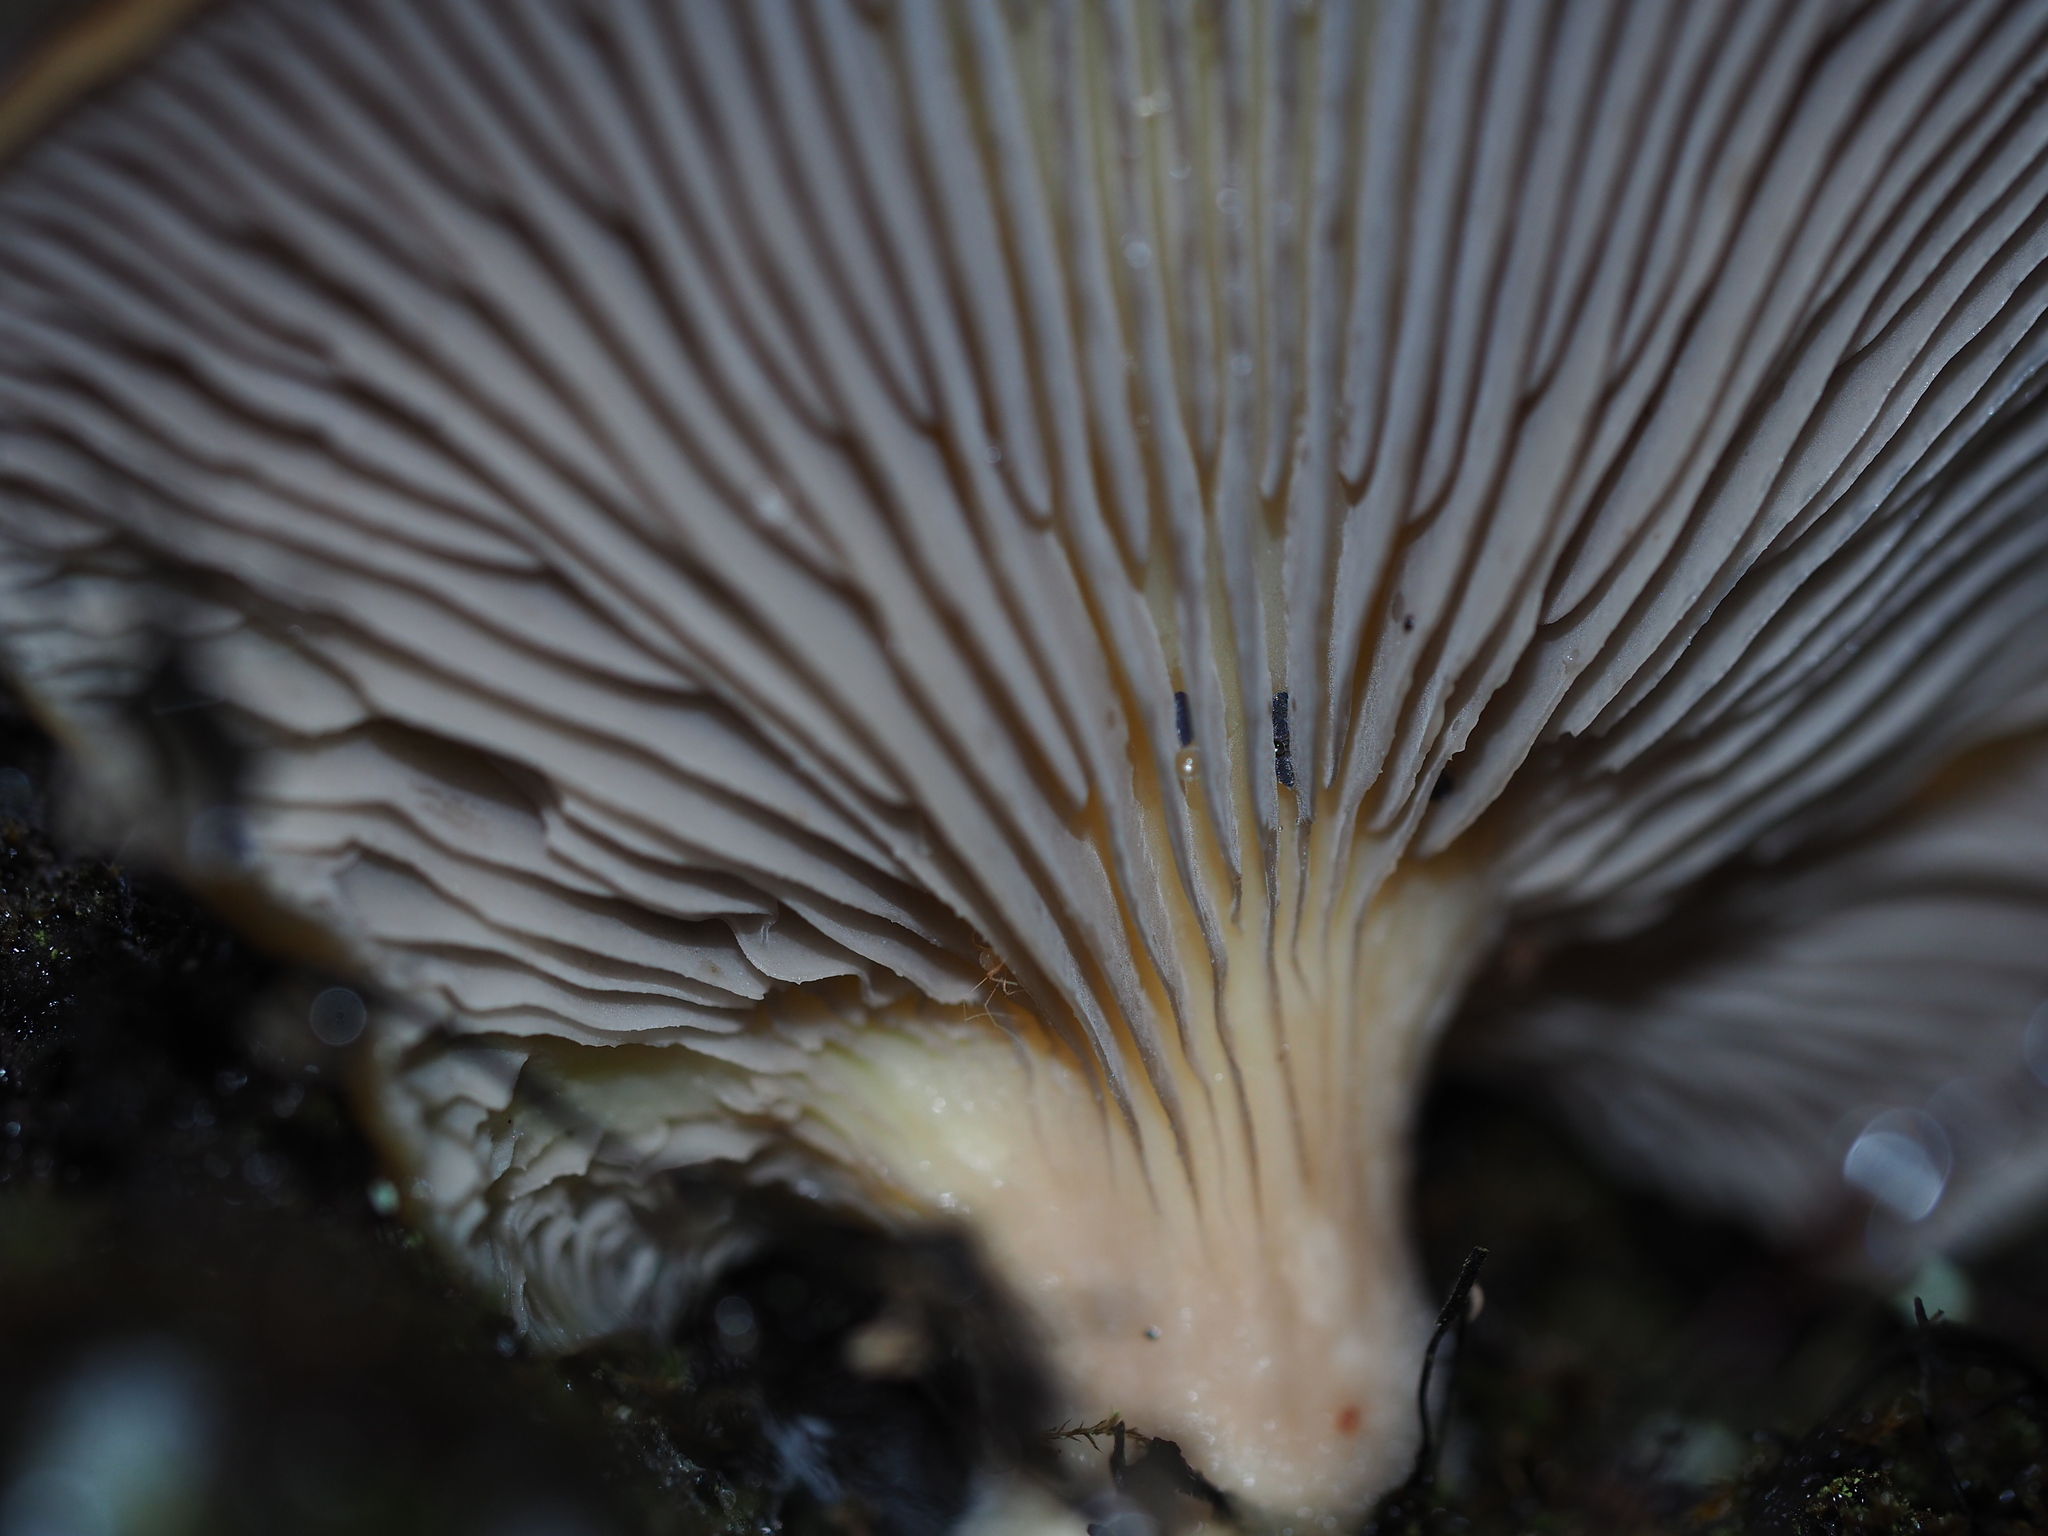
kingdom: Fungi
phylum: Basidiomycota
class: Agaricomycetes
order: Agaricales
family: Pleurotaceae
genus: Pleurotus
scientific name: Pleurotus purpureo-olivaceus
